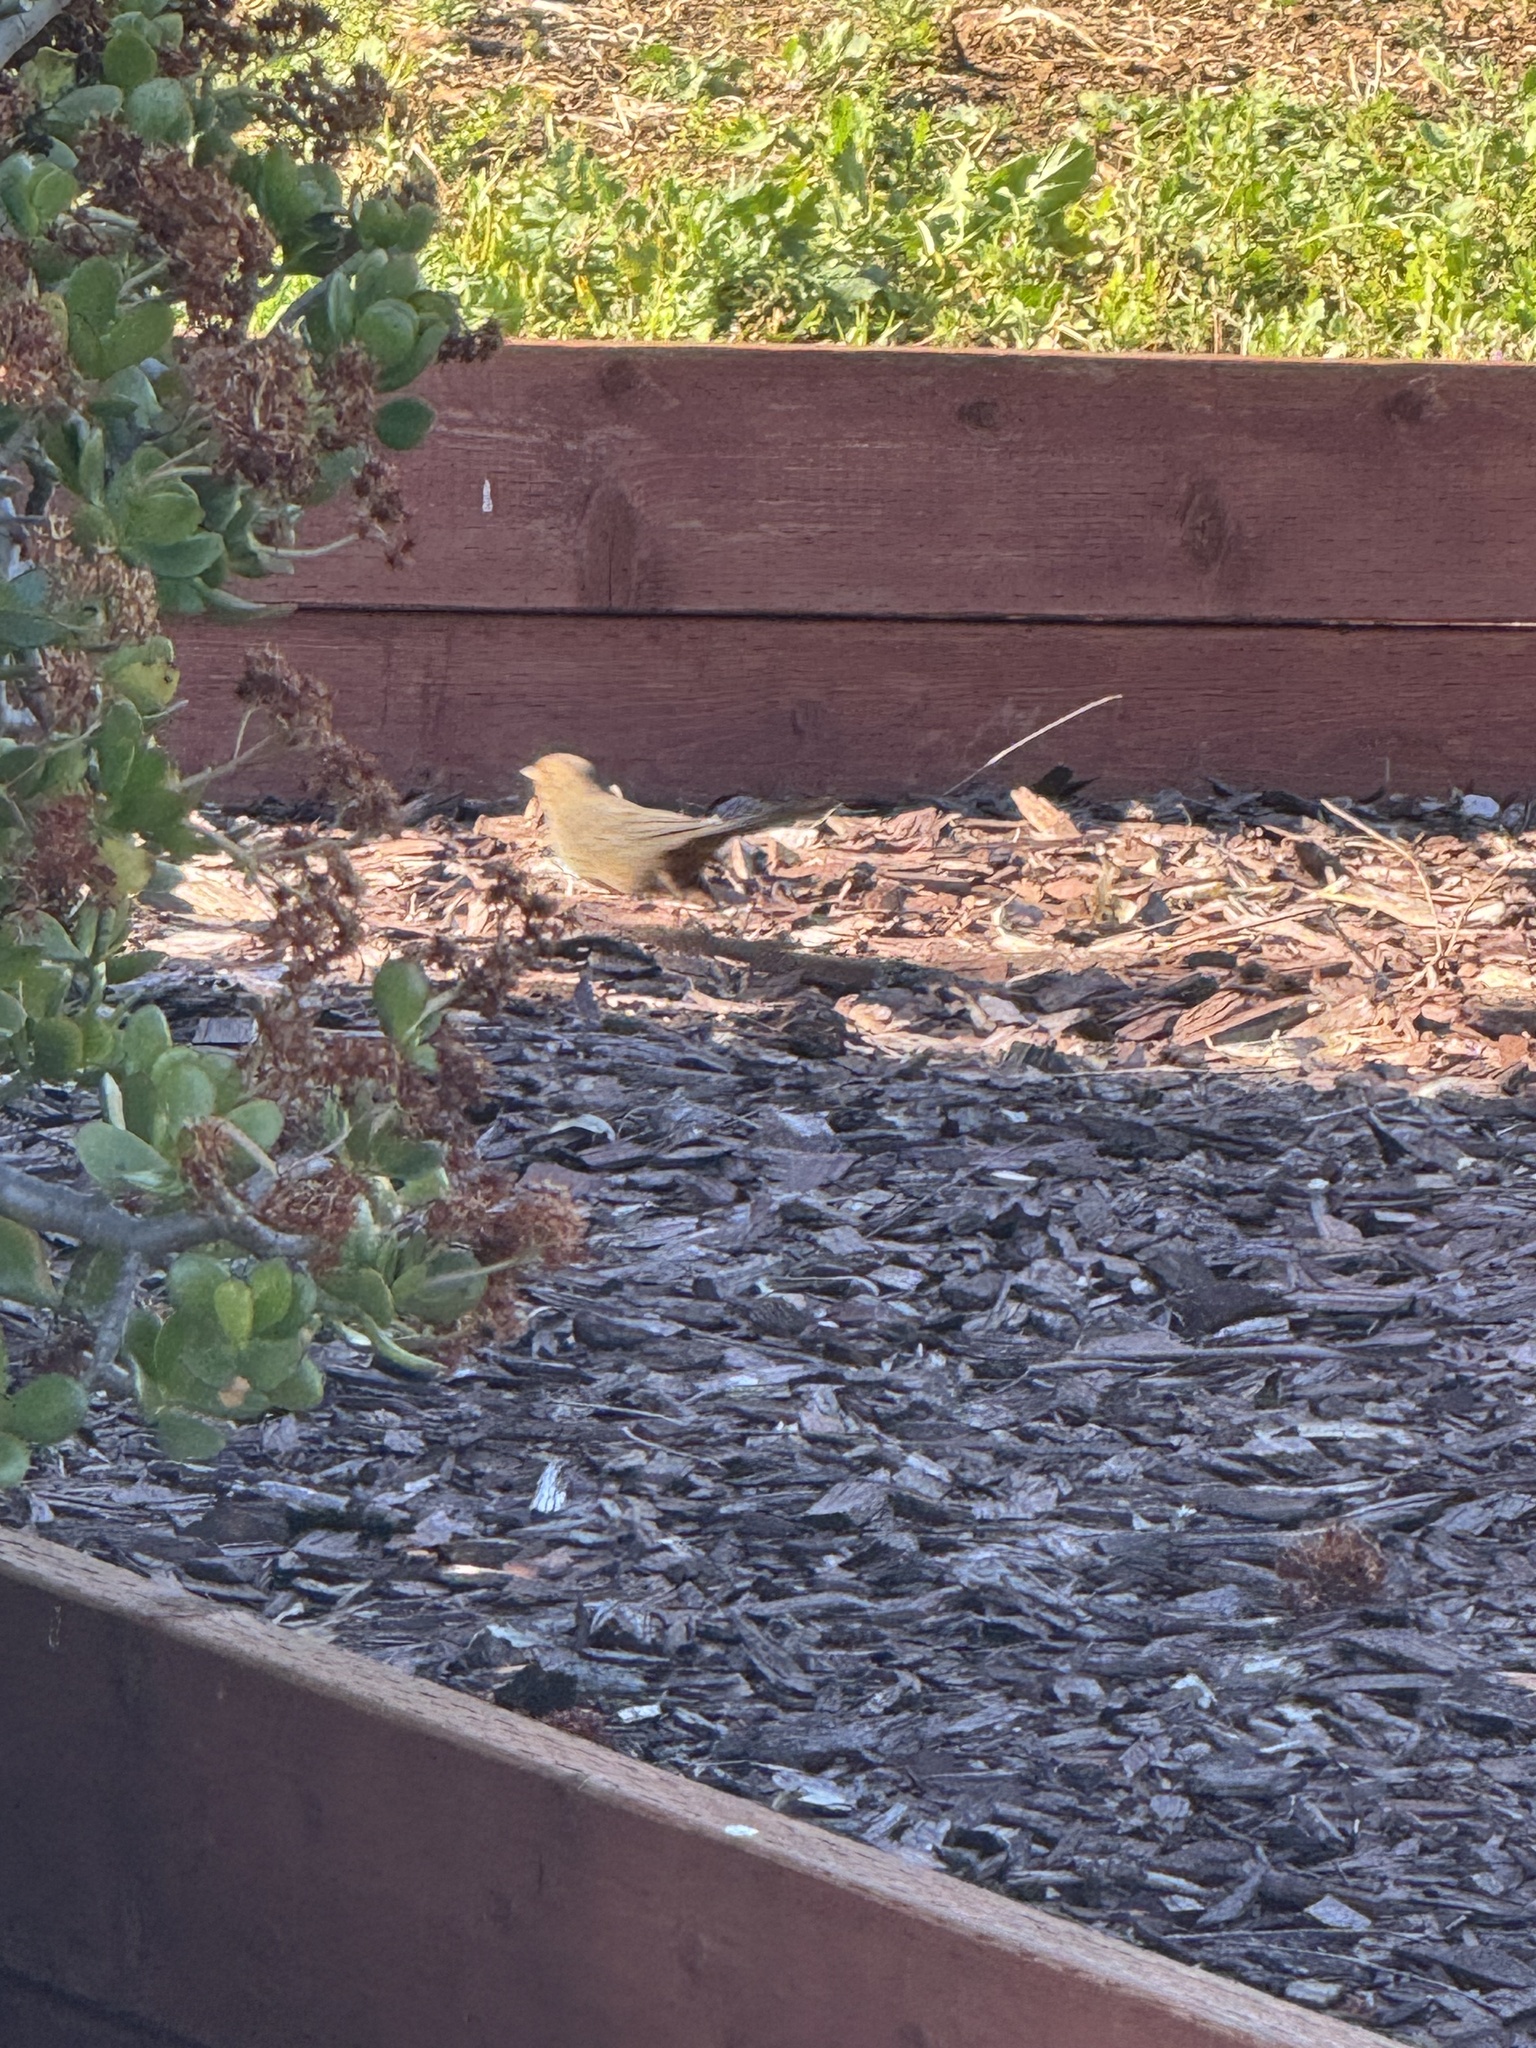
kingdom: Animalia
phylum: Chordata
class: Aves
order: Passeriformes
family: Passerellidae
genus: Melozone
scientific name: Melozone crissalis
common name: California towhee
